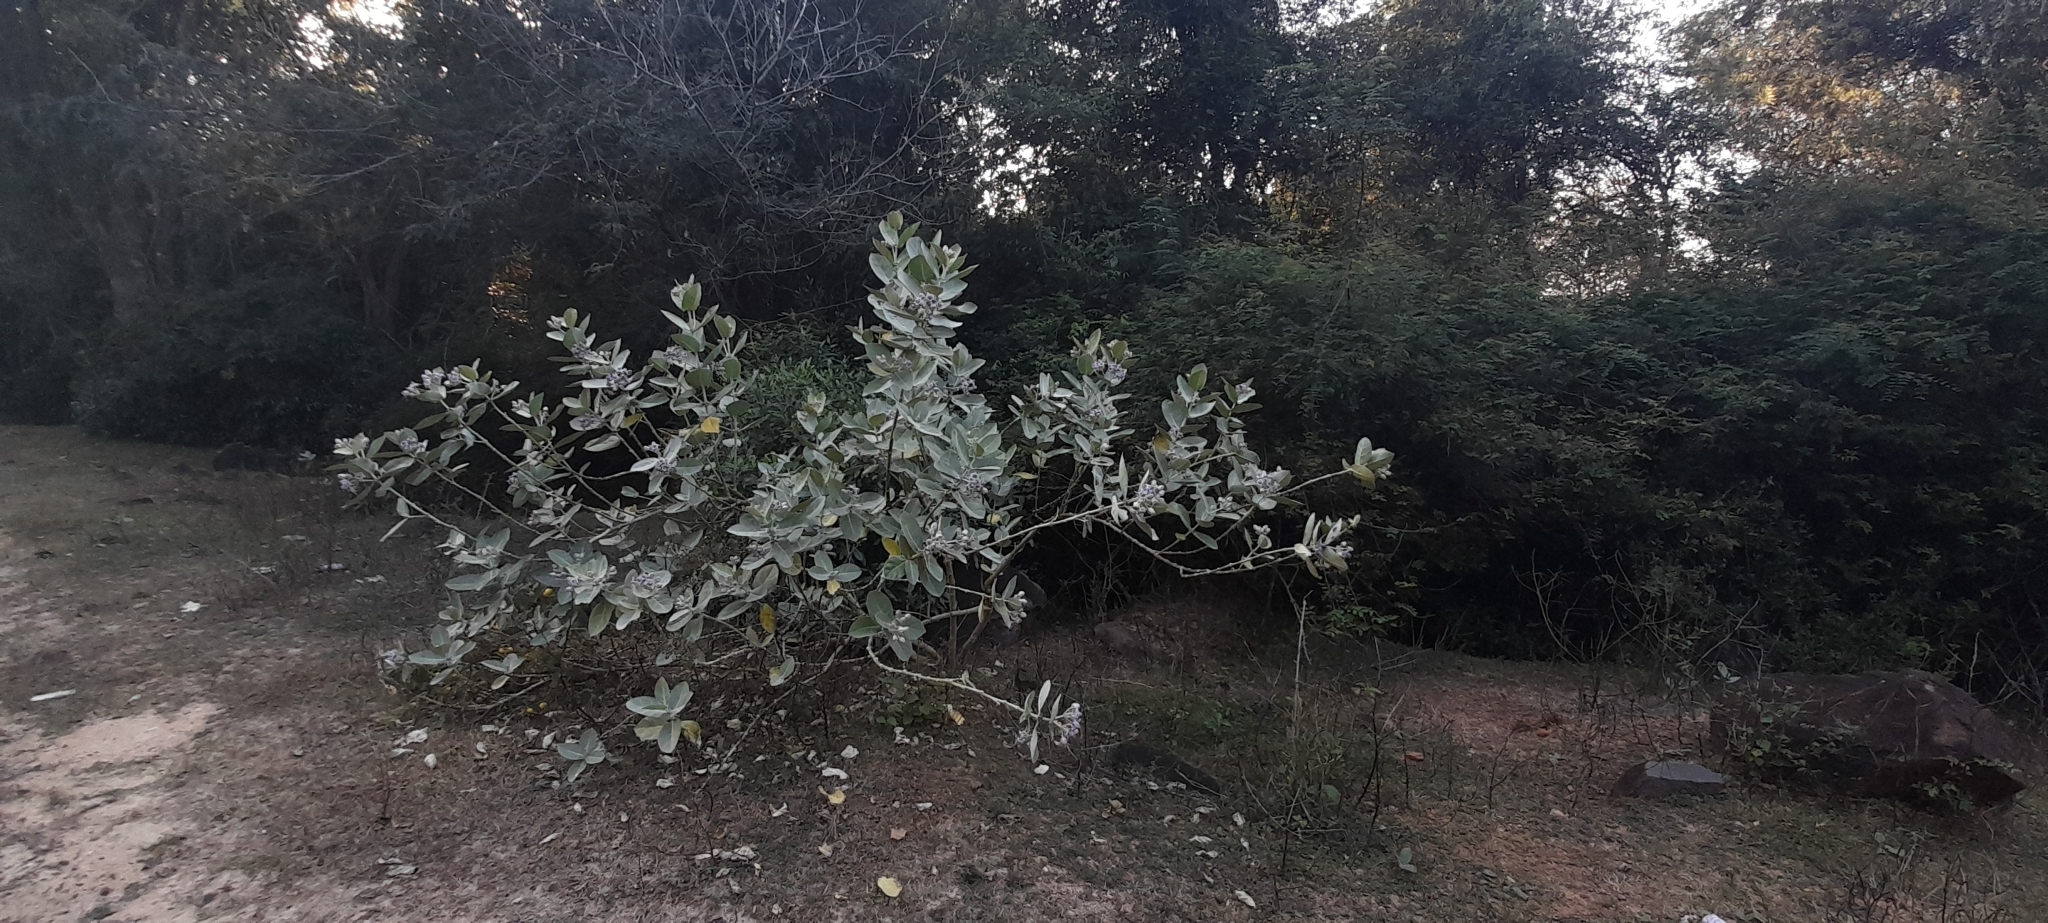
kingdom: Plantae
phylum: Tracheophyta
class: Magnoliopsida
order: Gentianales
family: Apocynaceae
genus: Calotropis
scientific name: Calotropis gigantea
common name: Crown flower
